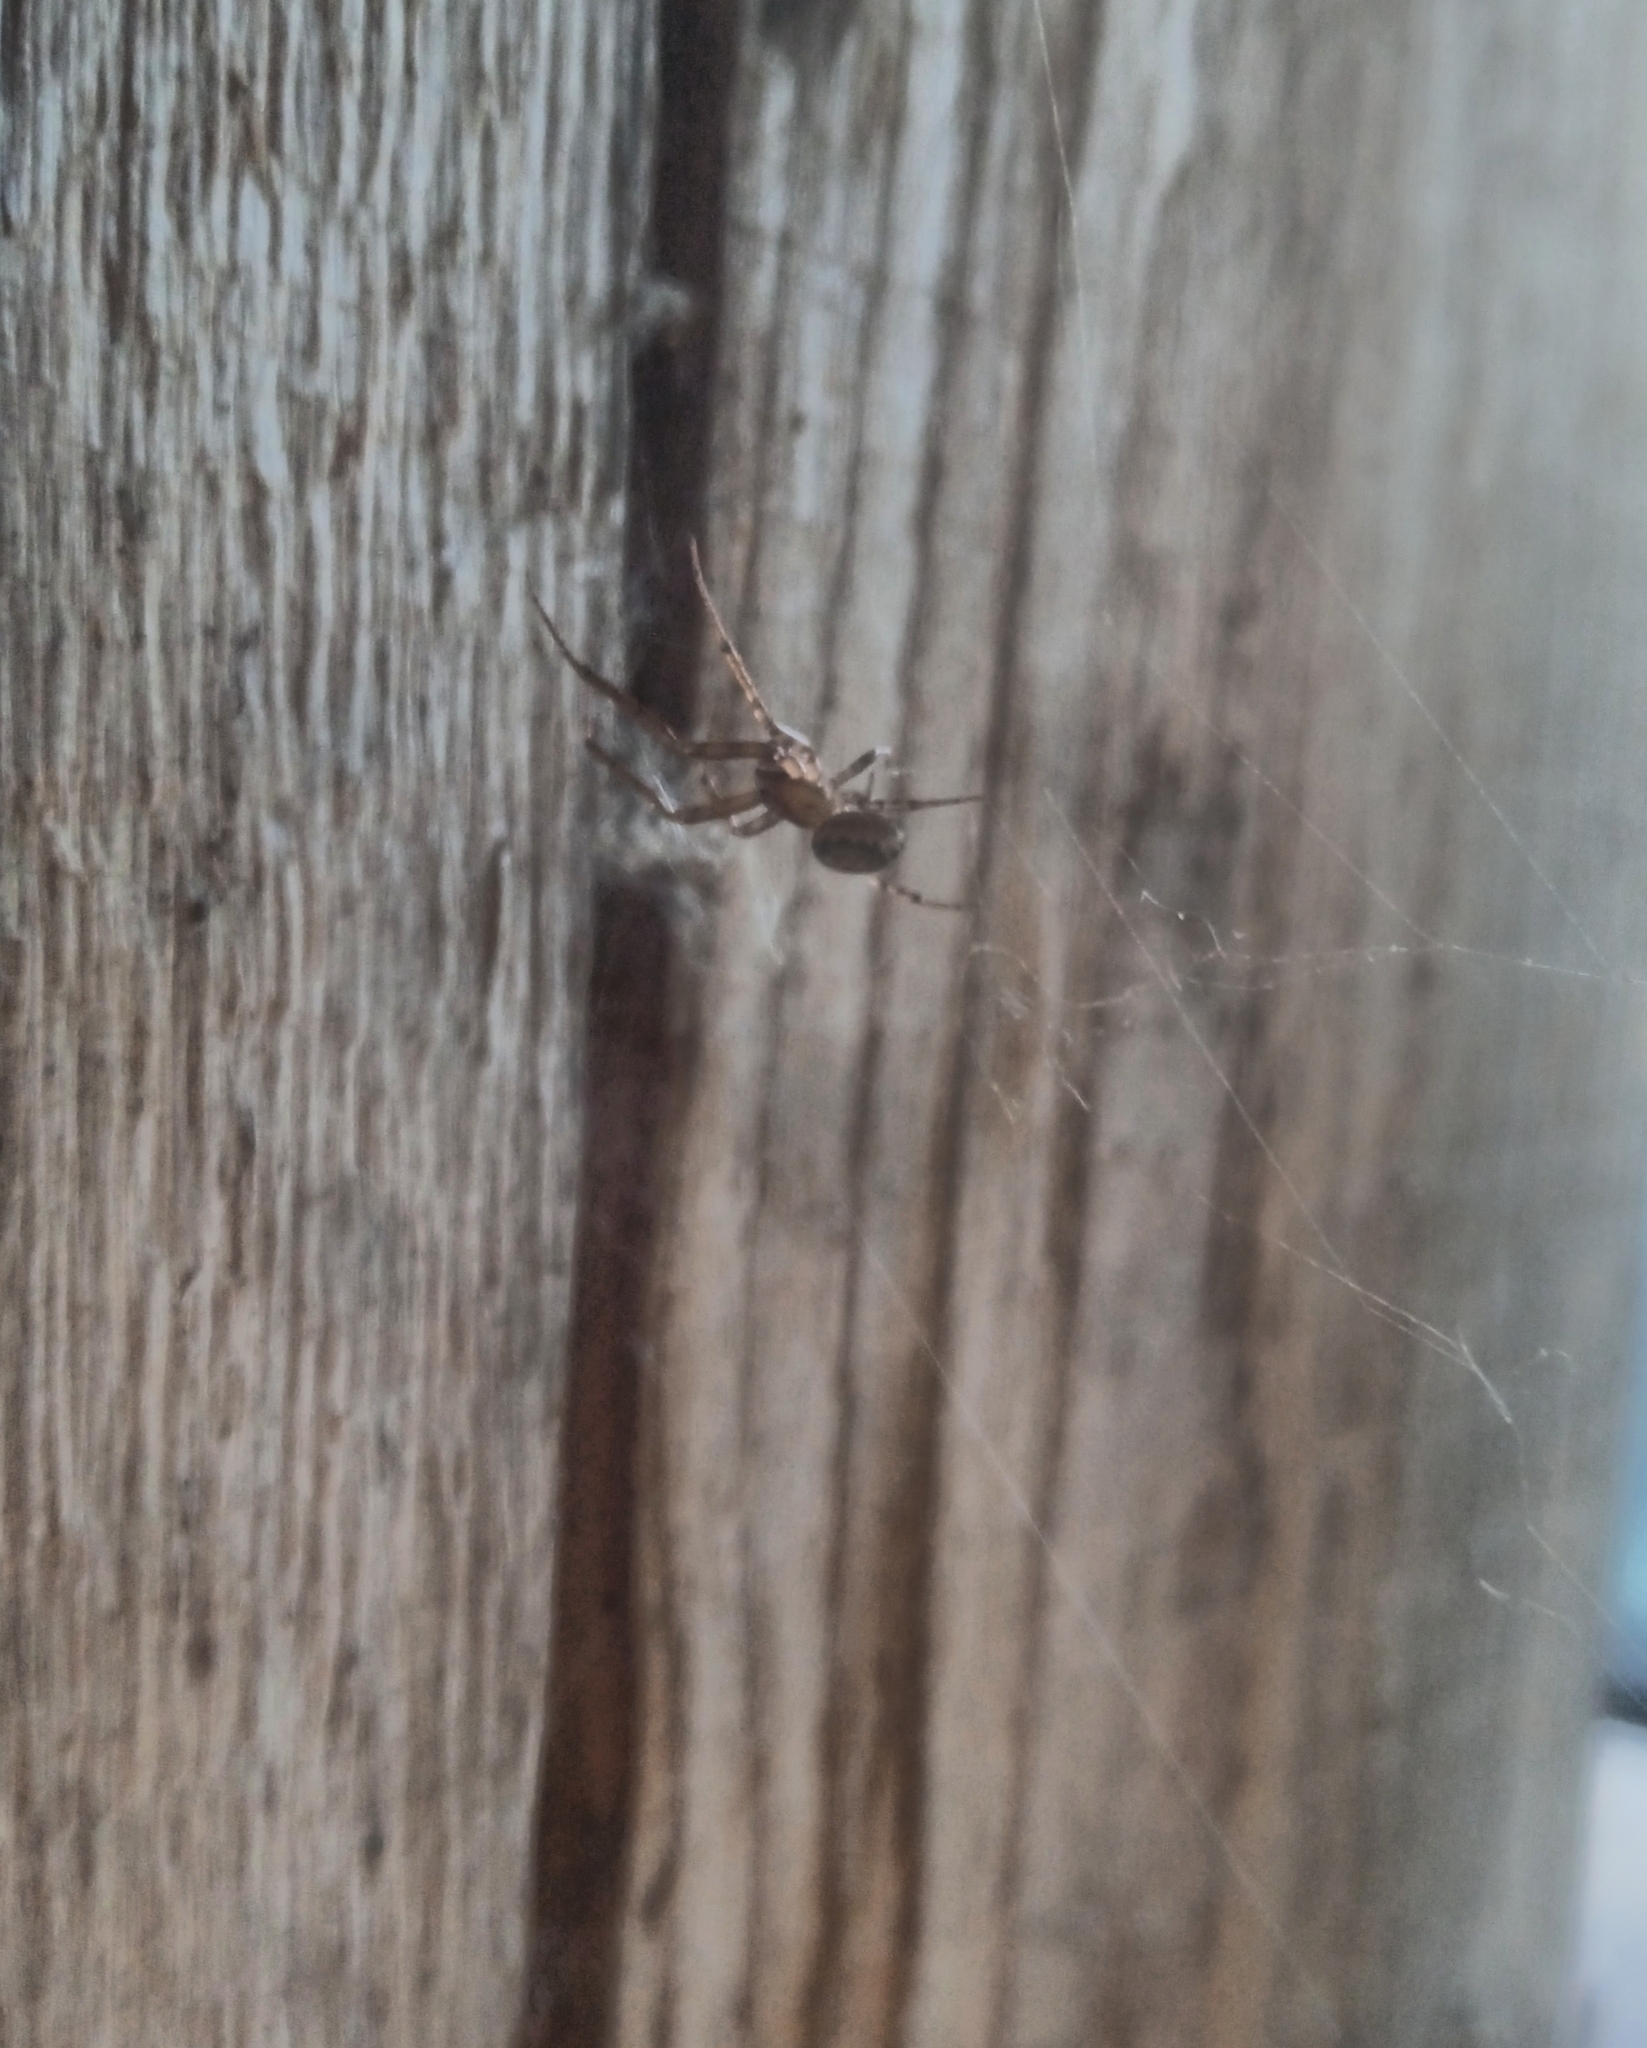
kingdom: Animalia
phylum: Arthropoda
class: Arachnida
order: Araneae
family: Theridiidae
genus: Steatoda
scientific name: Steatoda castanea
